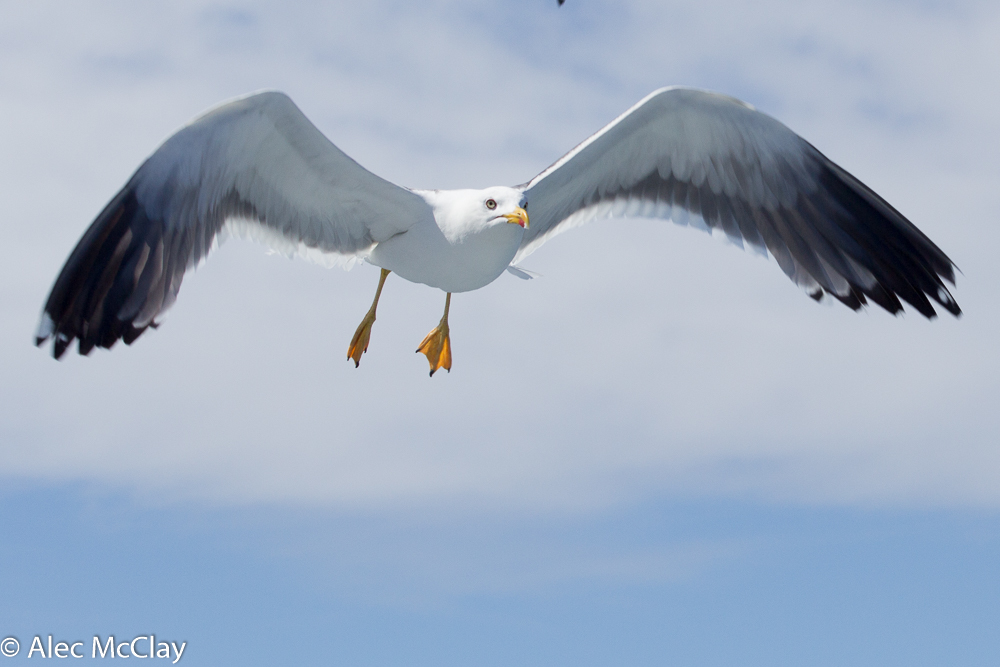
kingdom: Animalia
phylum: Chordata
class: Aves
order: Charadriiformes
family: Laridae
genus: Larus
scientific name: Larus fuscus
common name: Lesser black-backed gull
